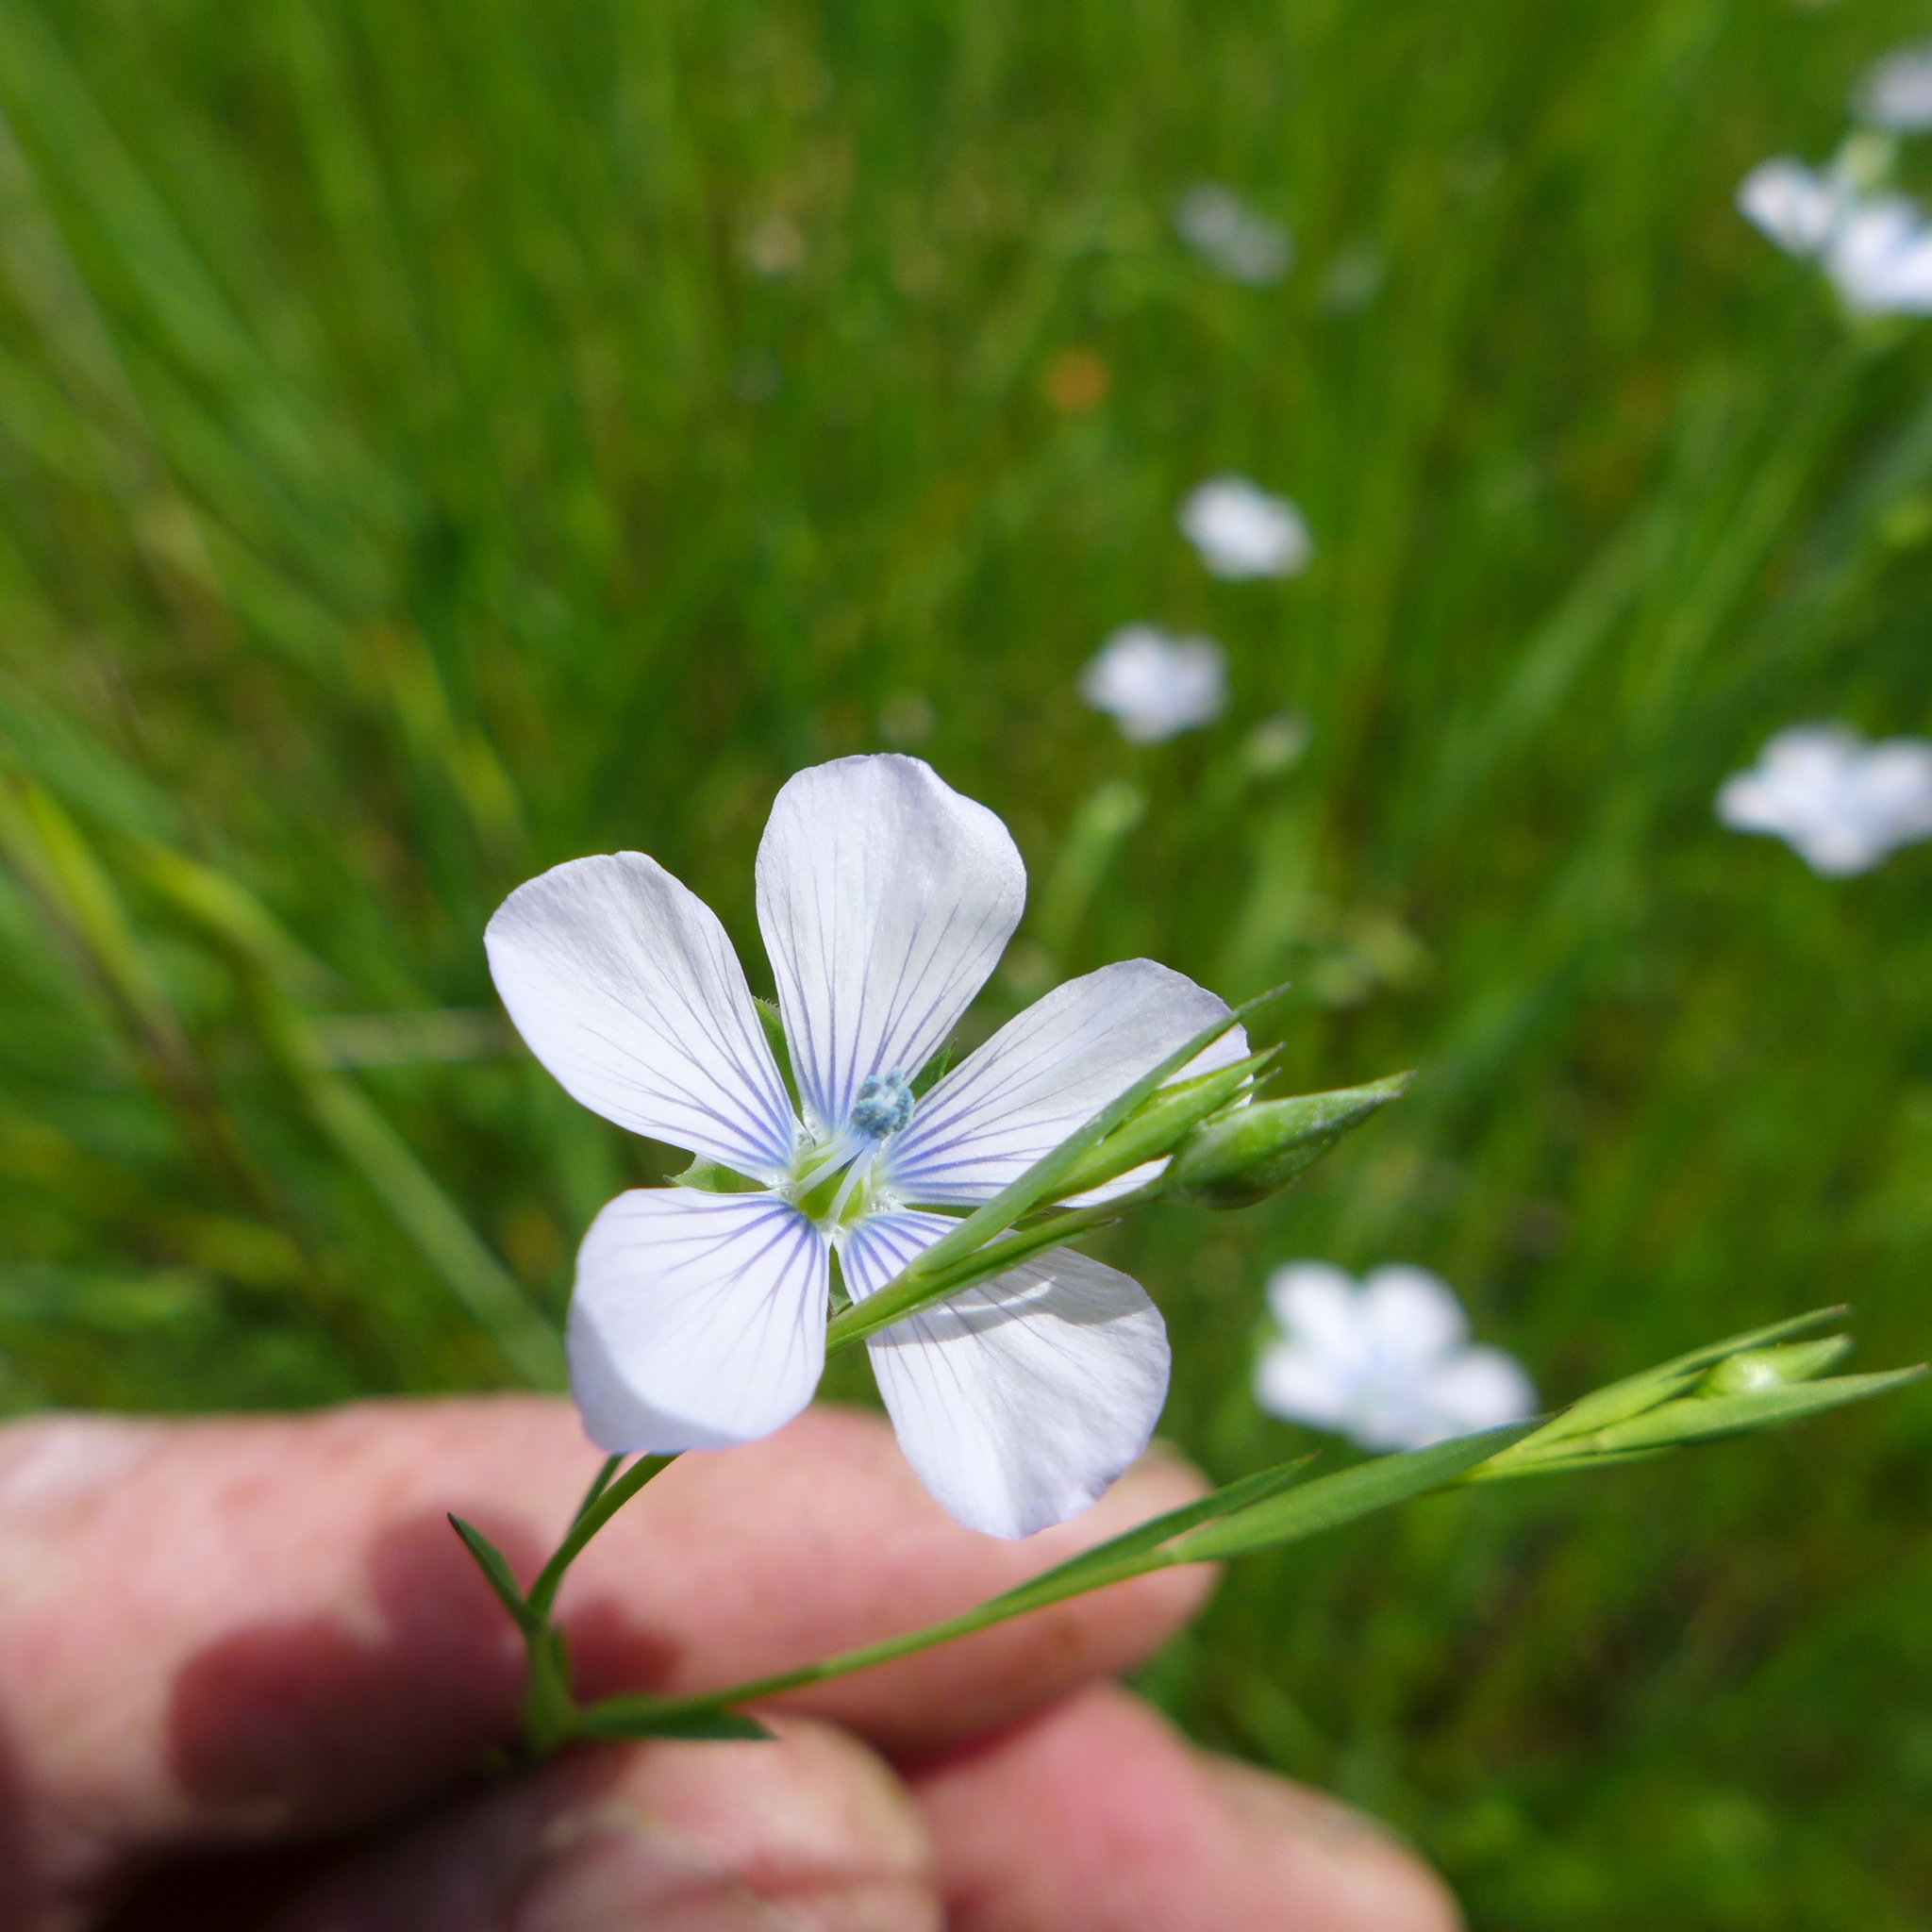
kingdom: Plantae
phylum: Tracheophyta
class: Magnoliopsida
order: Malpighiales
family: Linaceae
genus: Linum
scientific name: Linum bienne
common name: Pale flax
